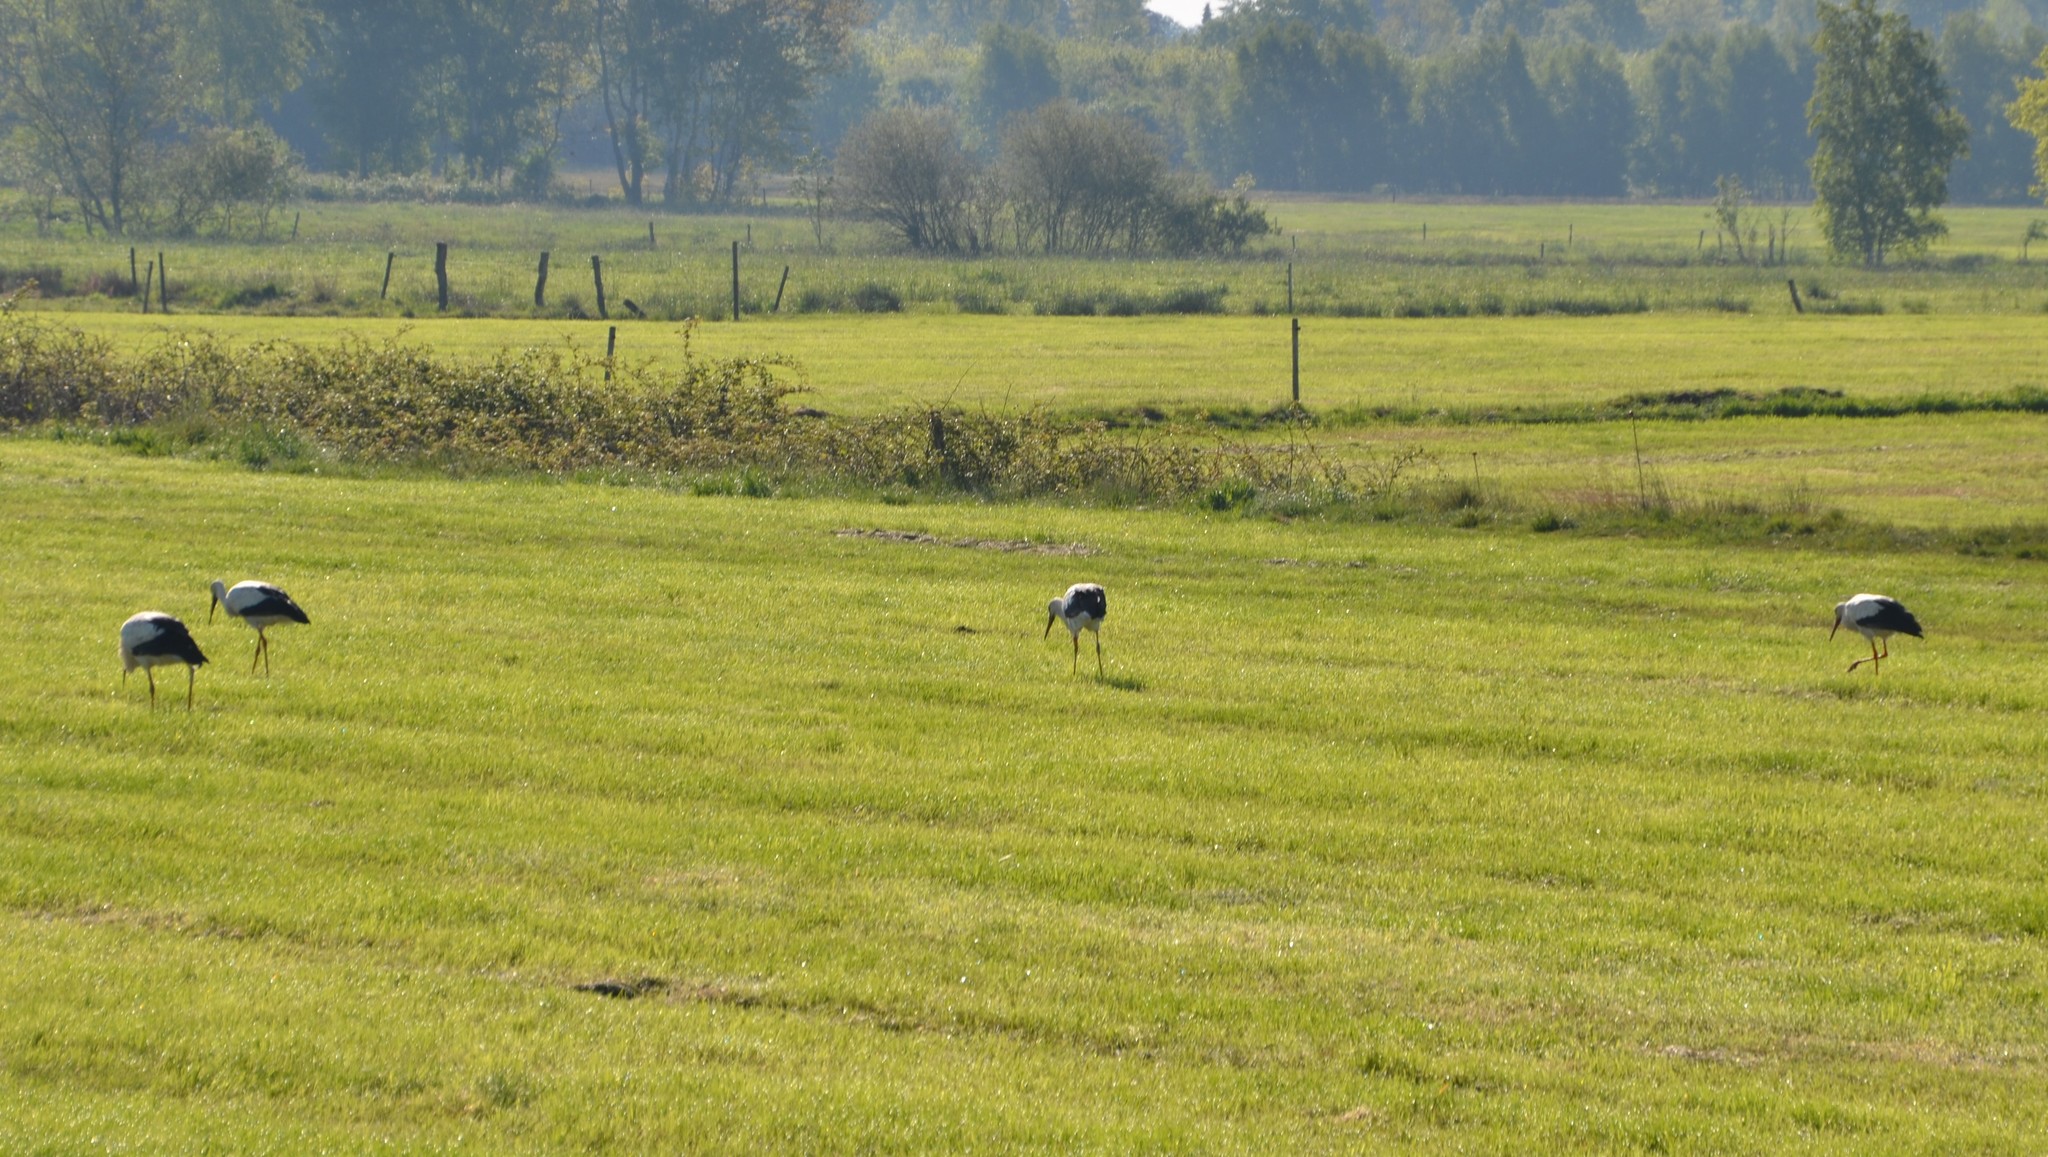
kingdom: Animalia
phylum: Chordata
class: Aves
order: Ciconiiformes
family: Ciconiidae
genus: Ciconia
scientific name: Ciconia ciconia
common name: White stork
